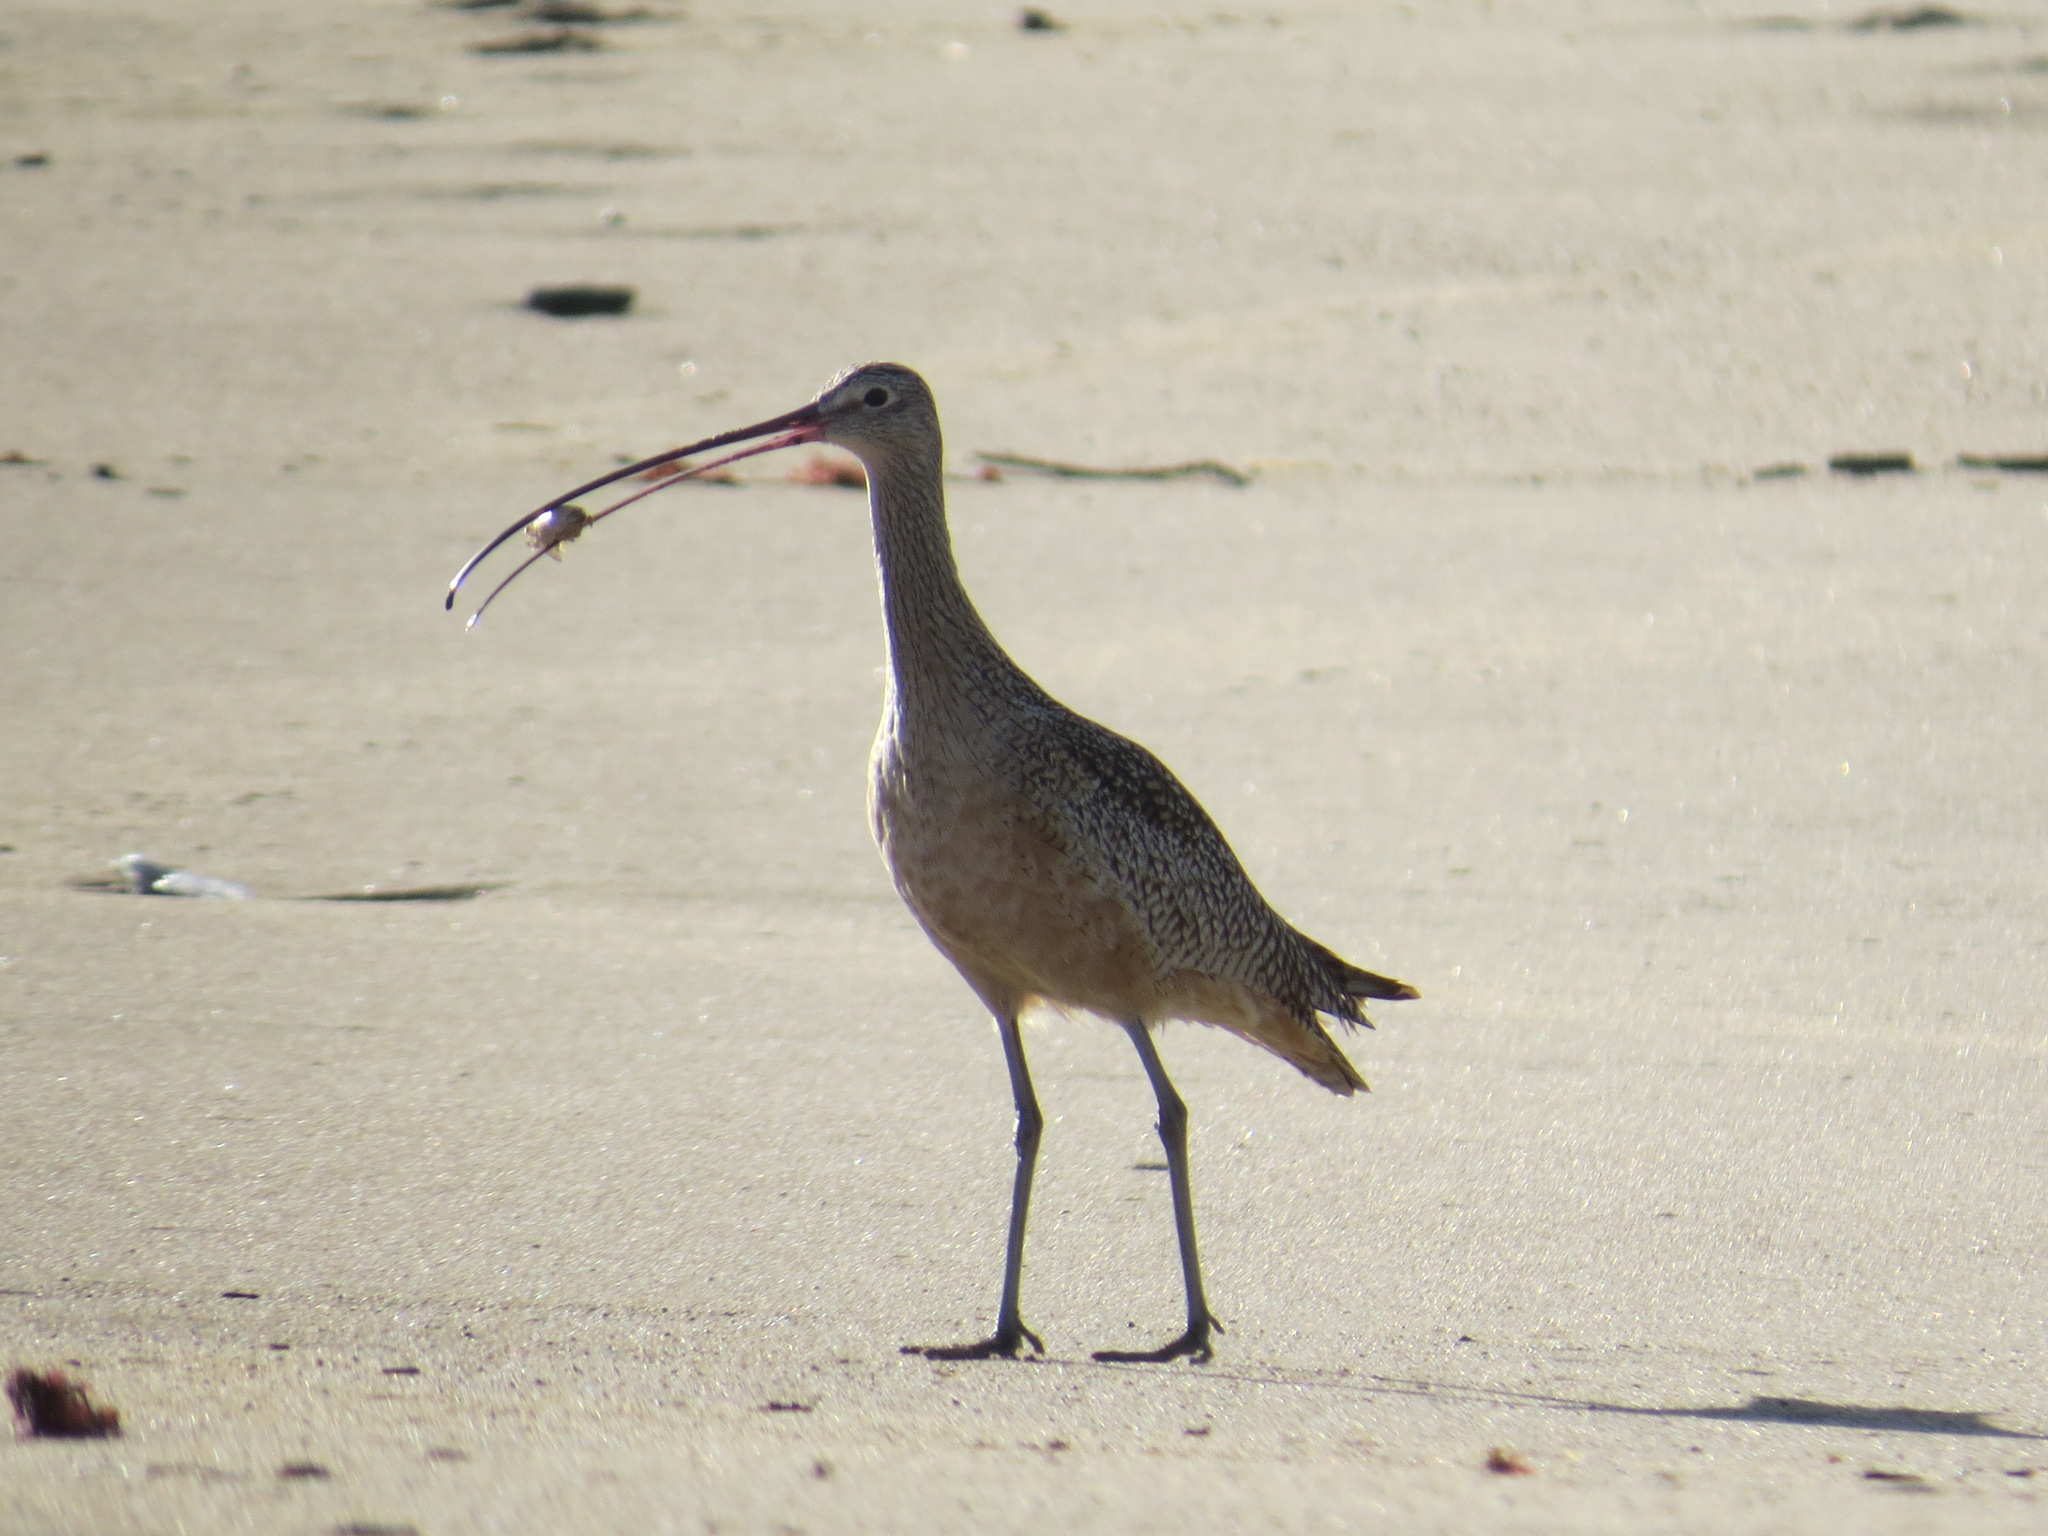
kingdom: Animalia
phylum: Chordata
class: Aves
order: Charadriiformes
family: Scolopacidae
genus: Numenius
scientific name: Numenius americanus
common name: Long-billed curlew
